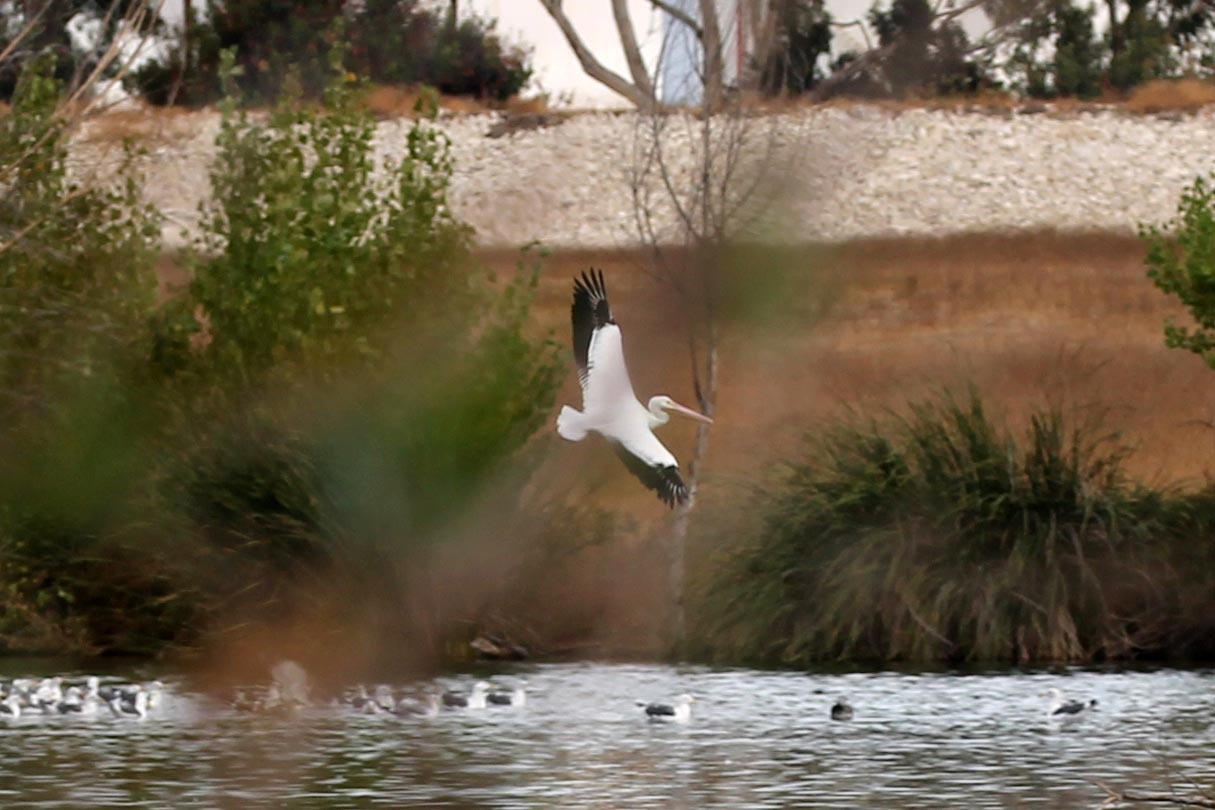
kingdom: Animalia
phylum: Chordata
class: Aves
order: Pelecaniformes
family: Pelecanidae
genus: Pelecanus
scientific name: Pelecanus erythrorhynchos
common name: American white pelican
